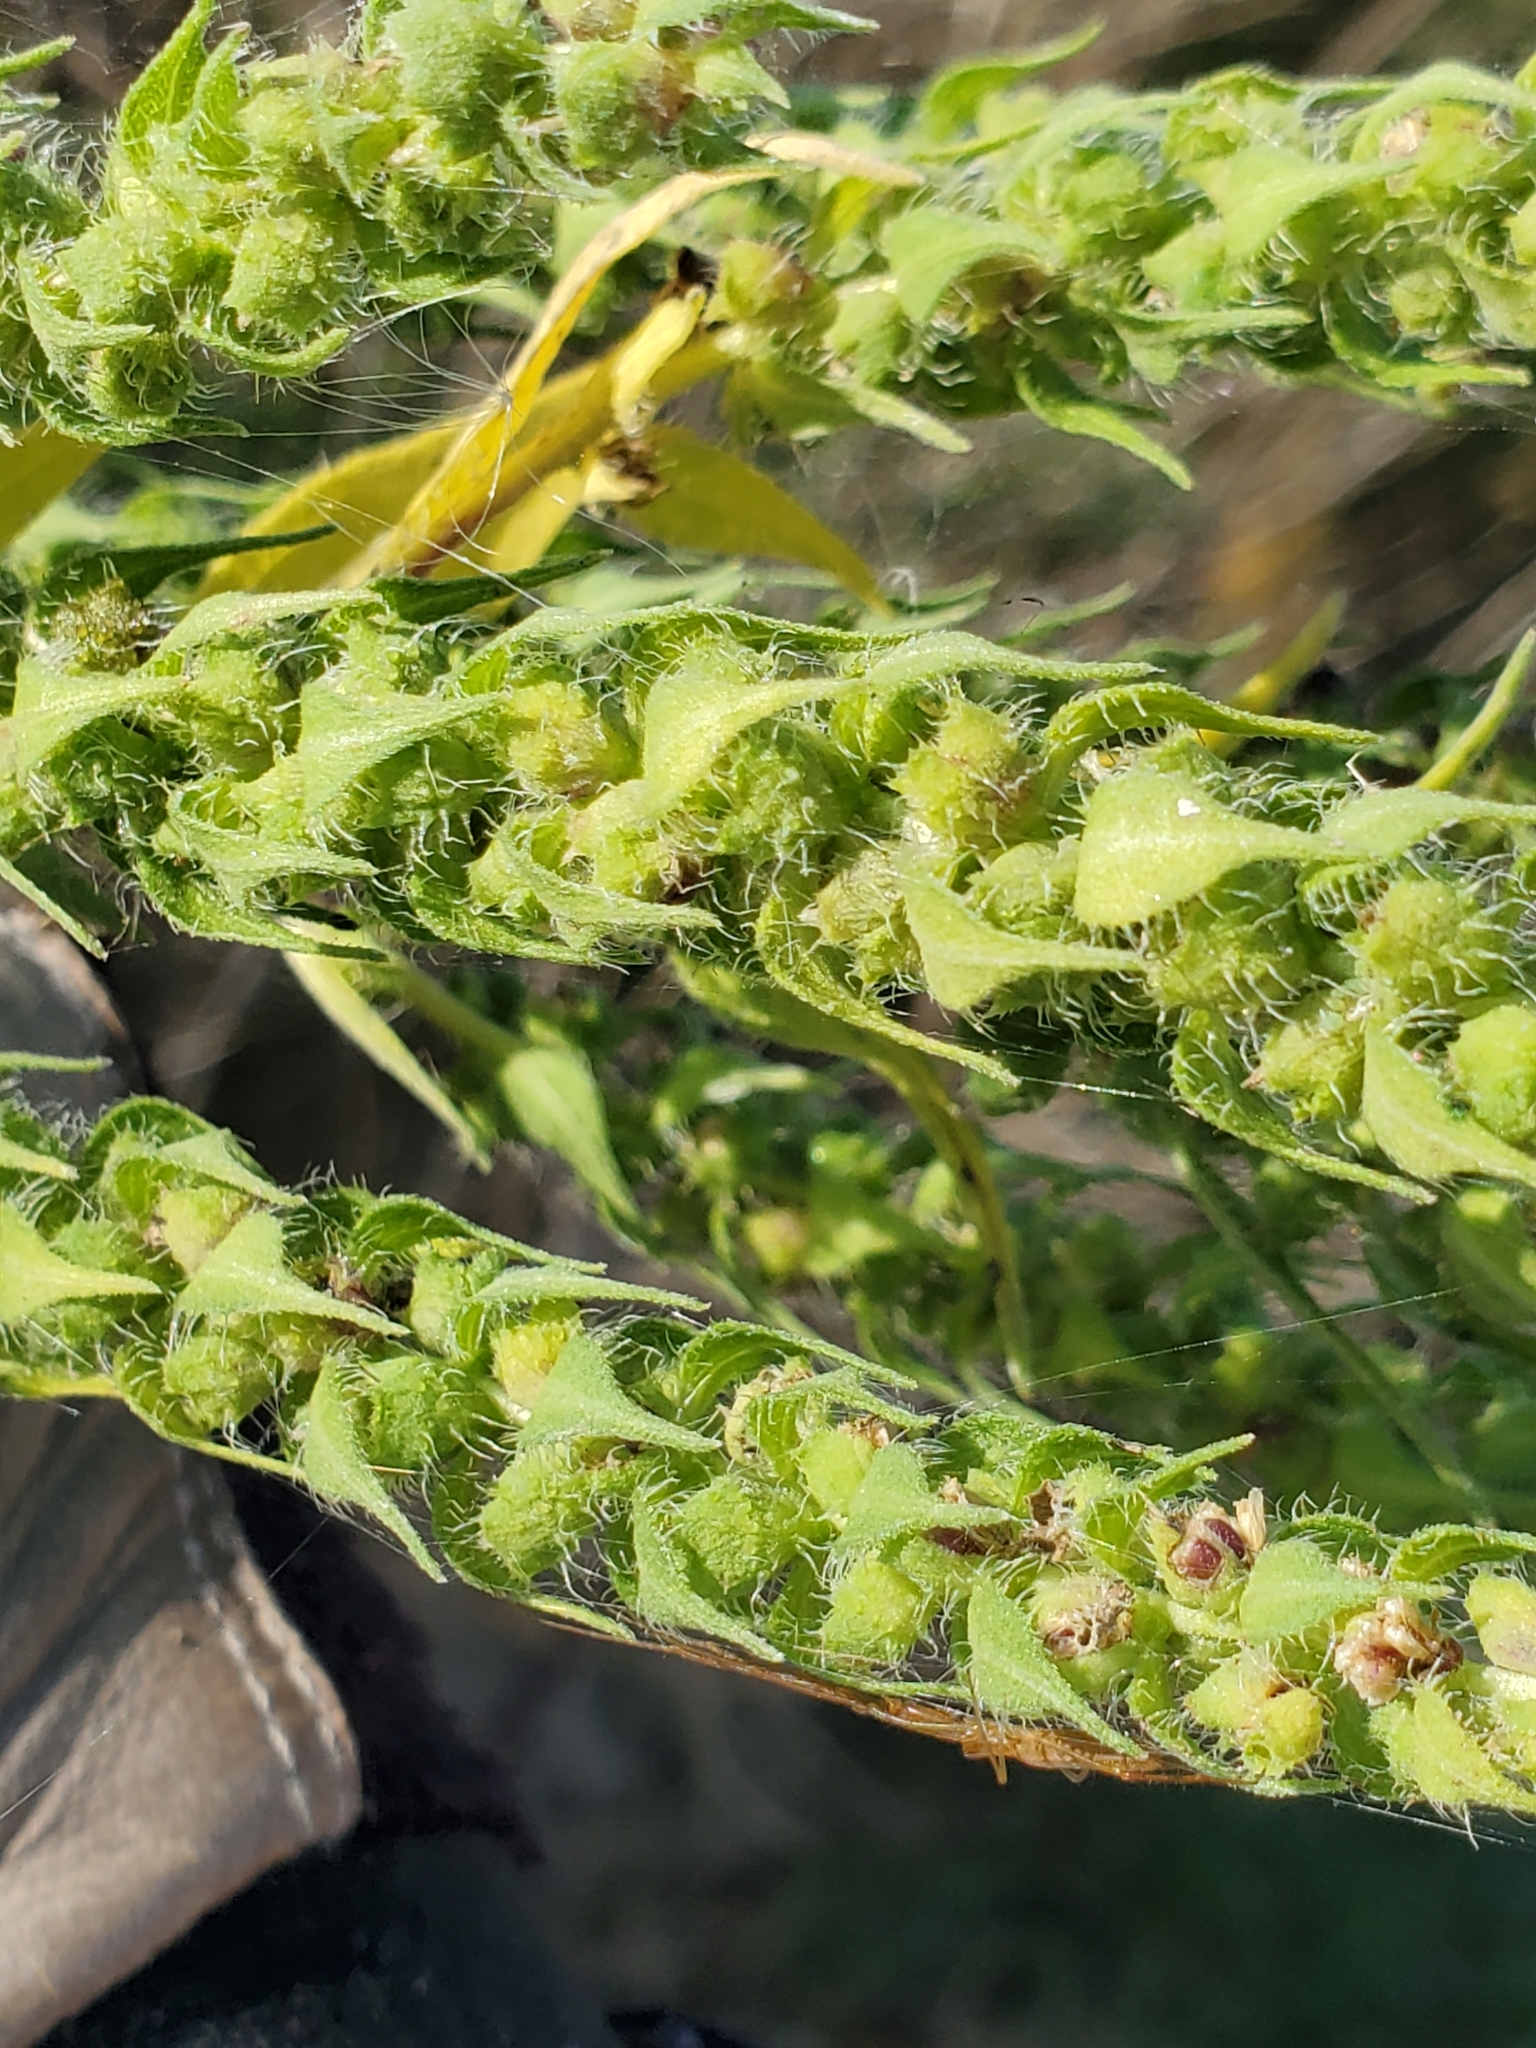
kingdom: Plantae
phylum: Tracheophyta
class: Magnoliopsida
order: Asterales
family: Asteraceae
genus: Iva
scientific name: Iva annua
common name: Marsh-elder
